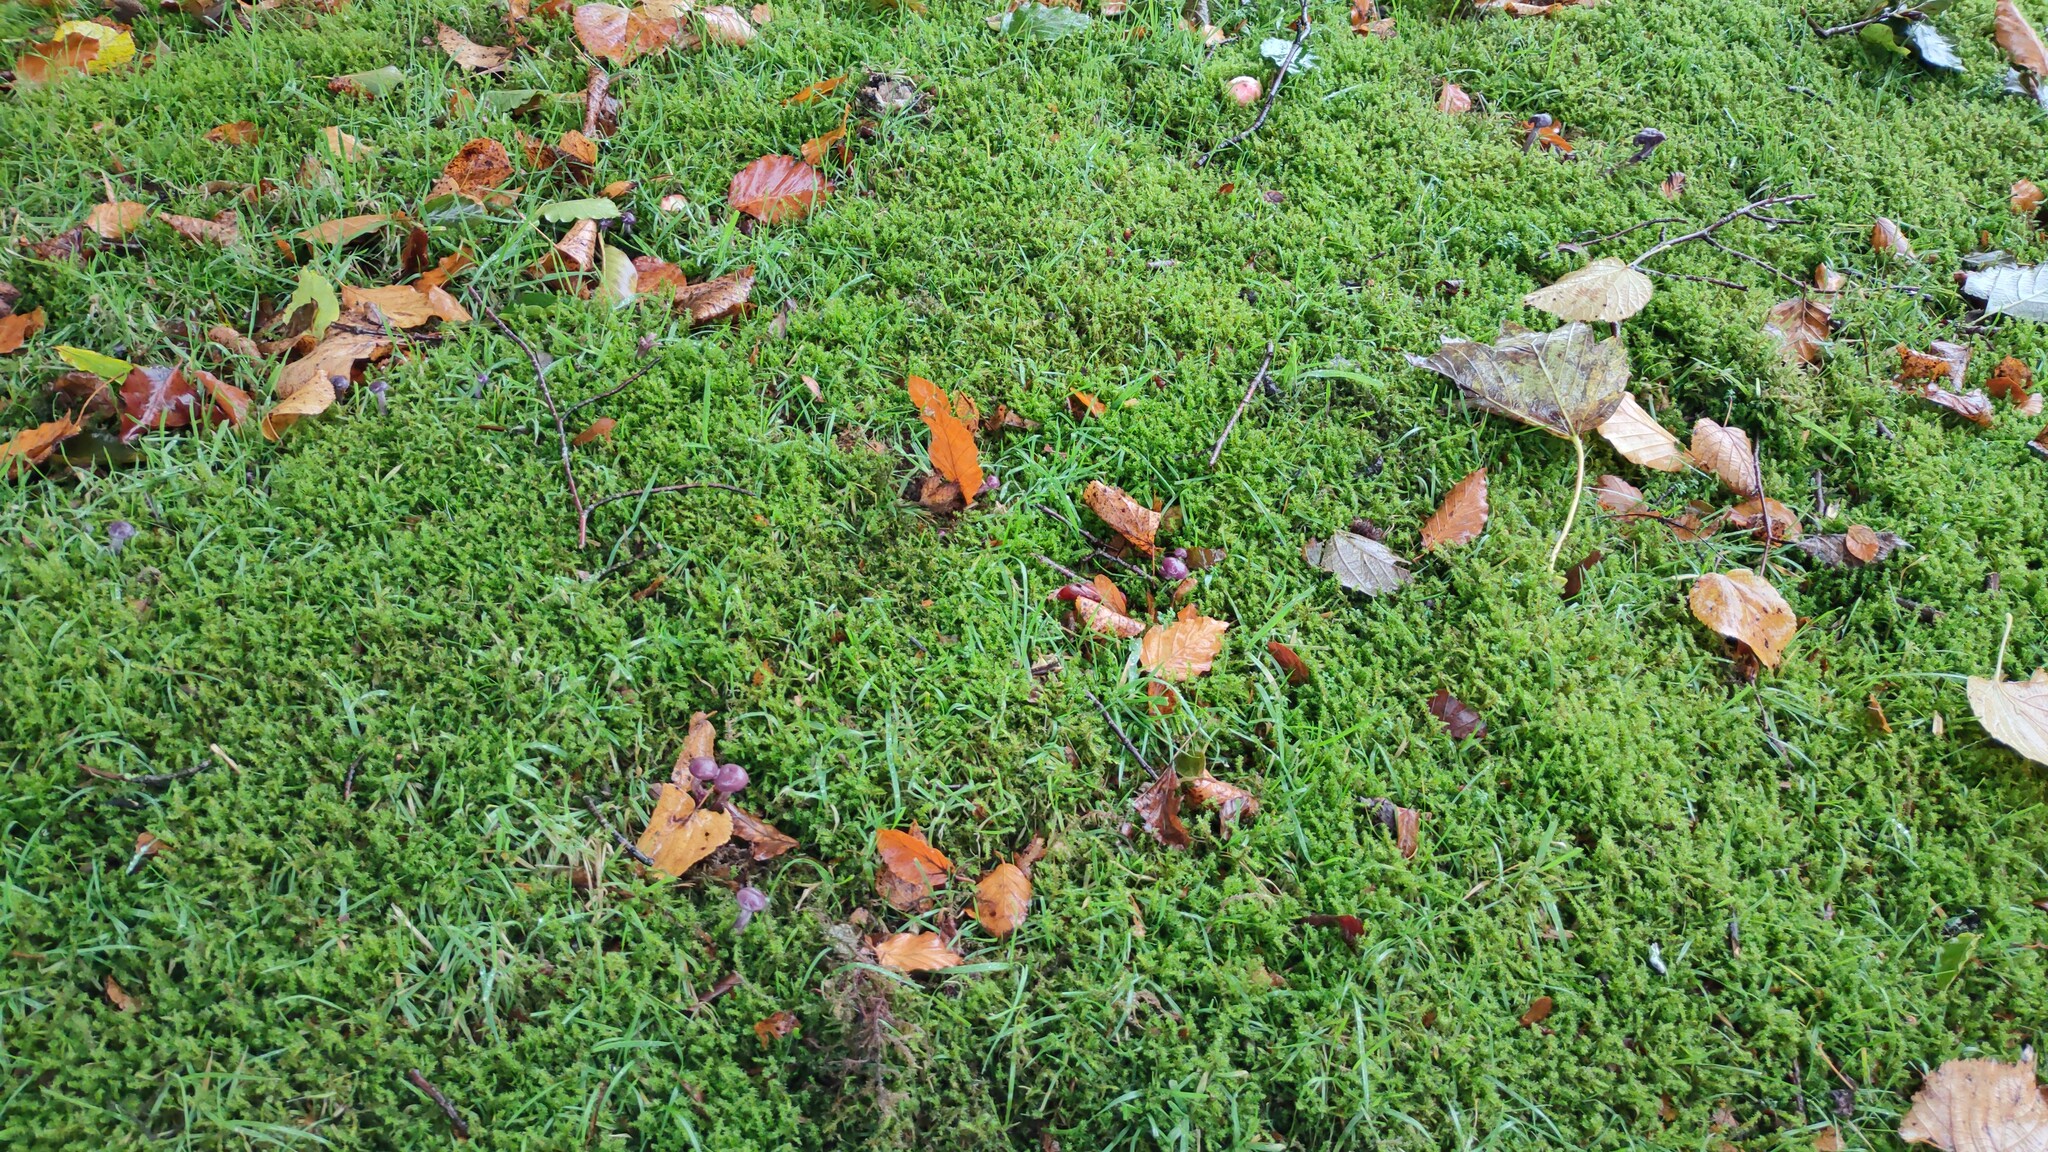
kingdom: Fungi
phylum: Basidiomycota
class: Agaricomycetes
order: Agaricales
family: Hydnangiaceae
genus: Laccaria
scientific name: Laccaria amethystina
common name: Amethyst deceiver
